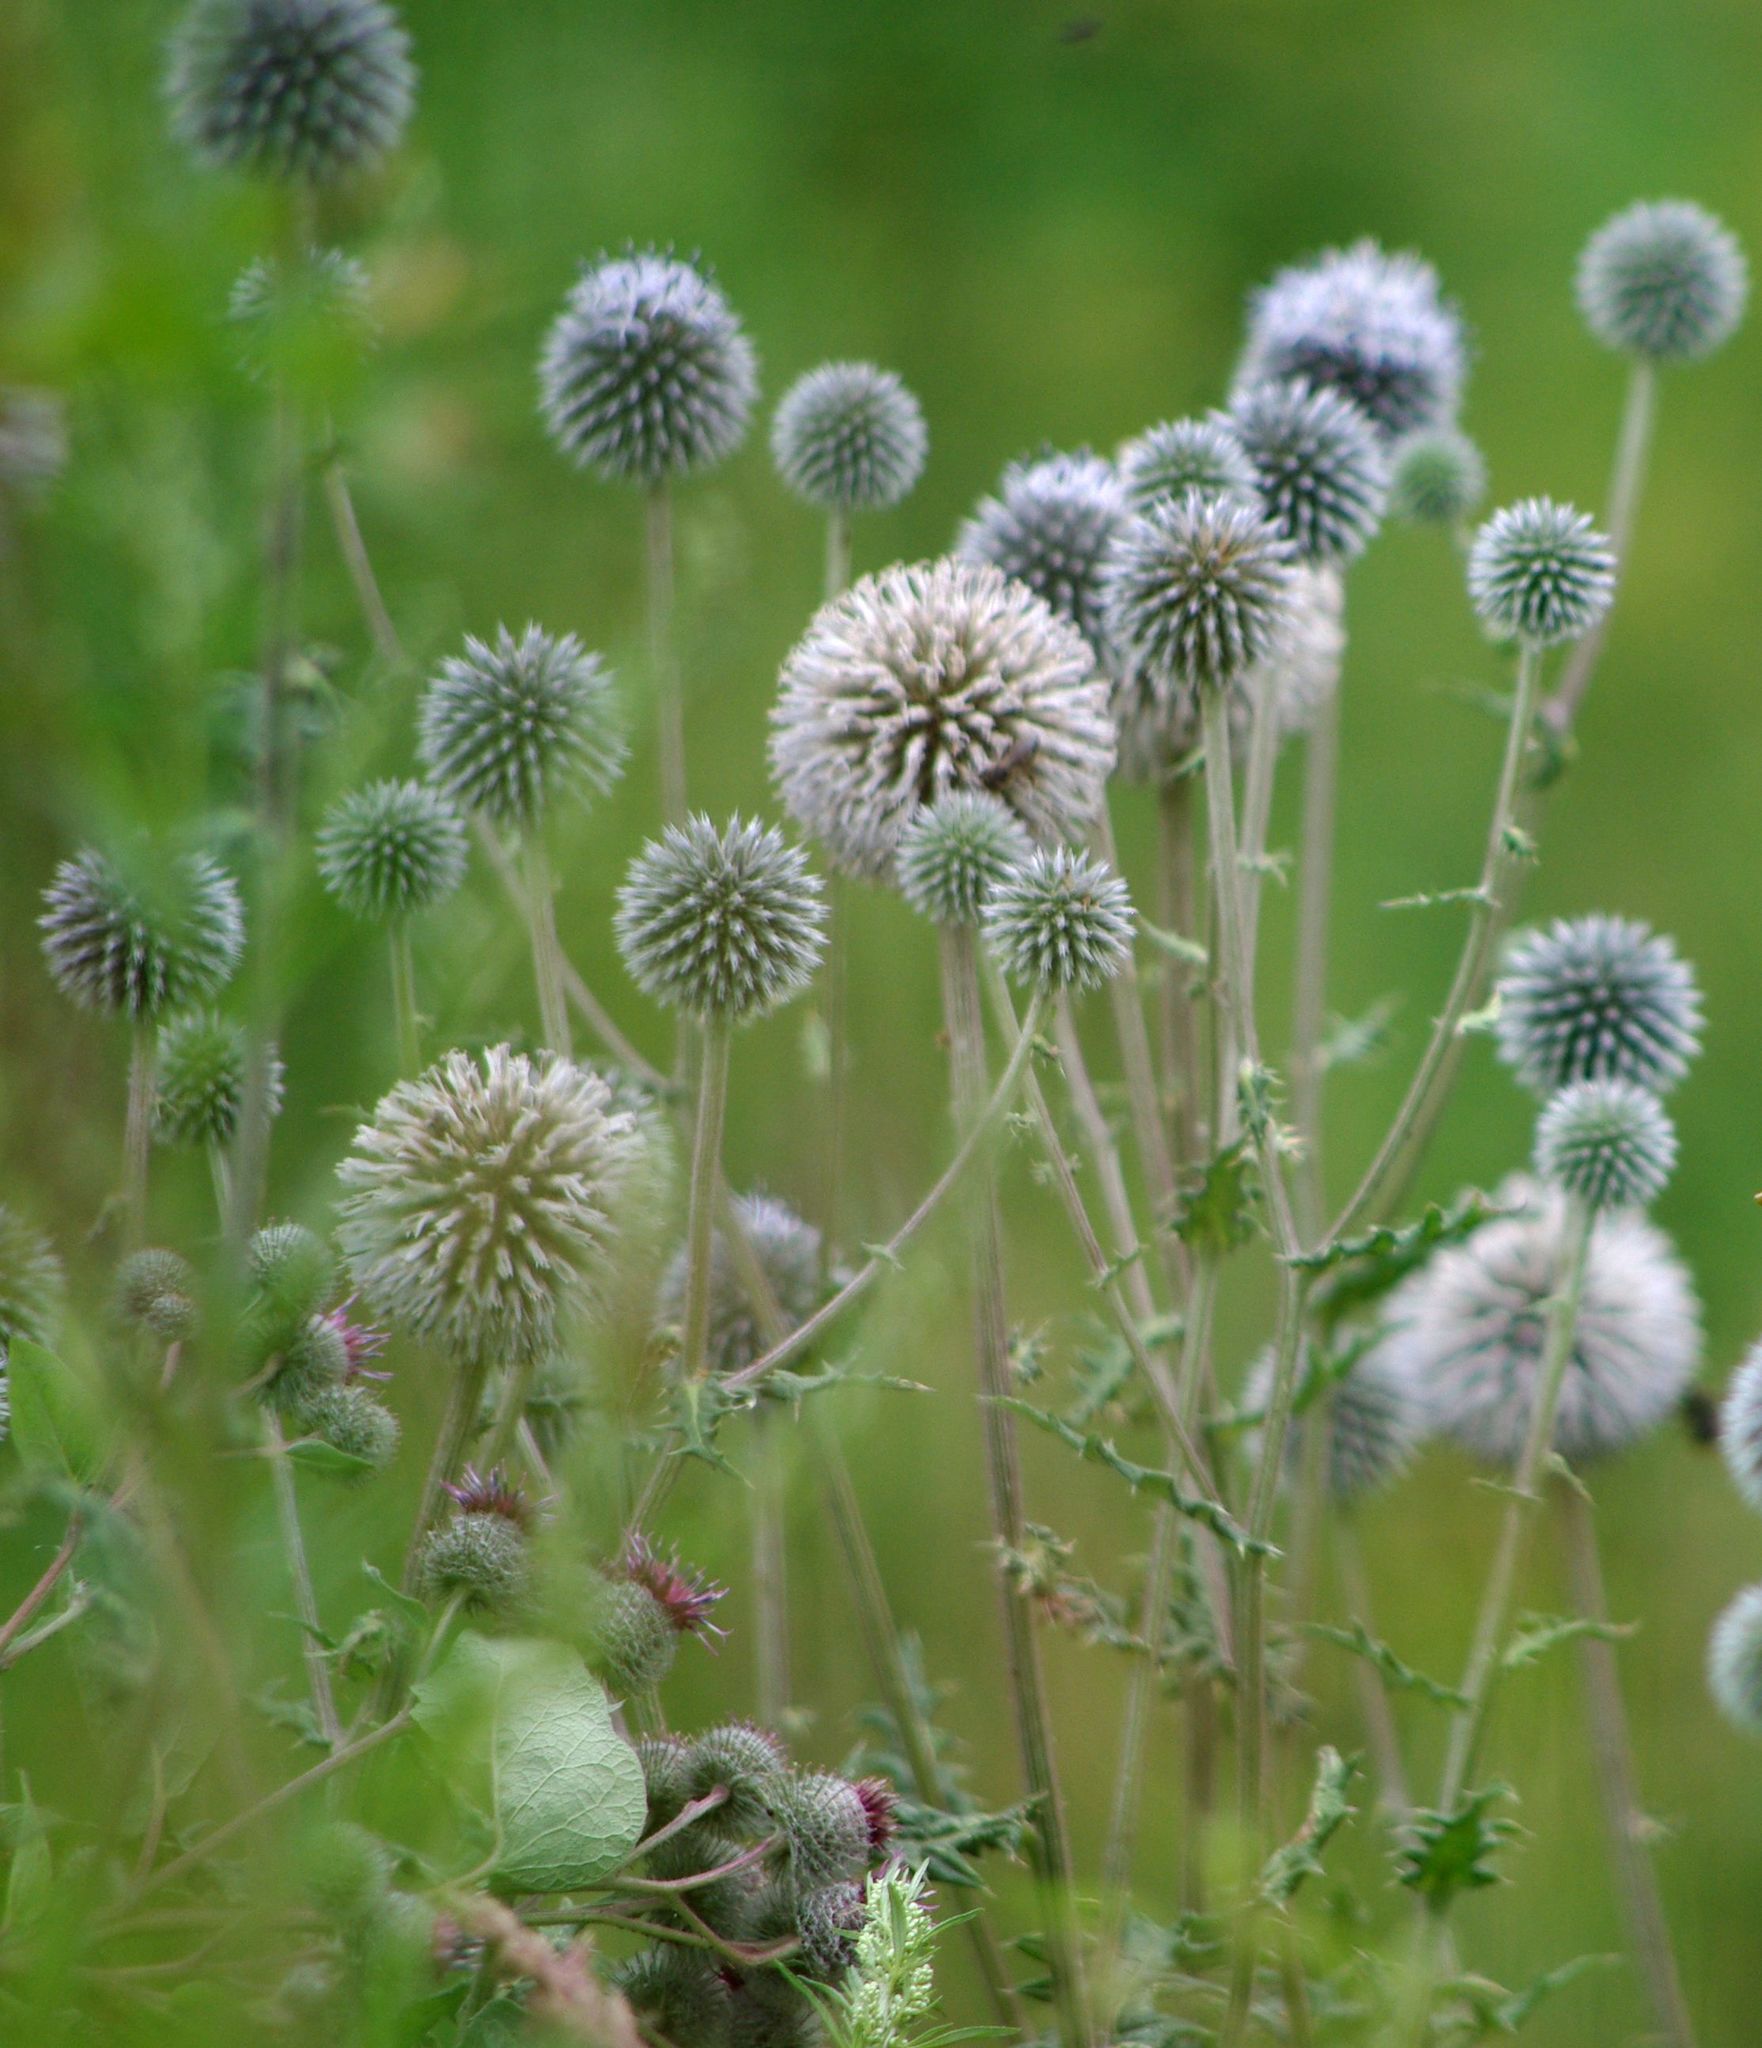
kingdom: Plantae
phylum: Tracheophyta
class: Magnoliopsida
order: Asterales
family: Asteraceae
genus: Echinops
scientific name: Echinops sphaerocephalus
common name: Glandular globe-thistle
